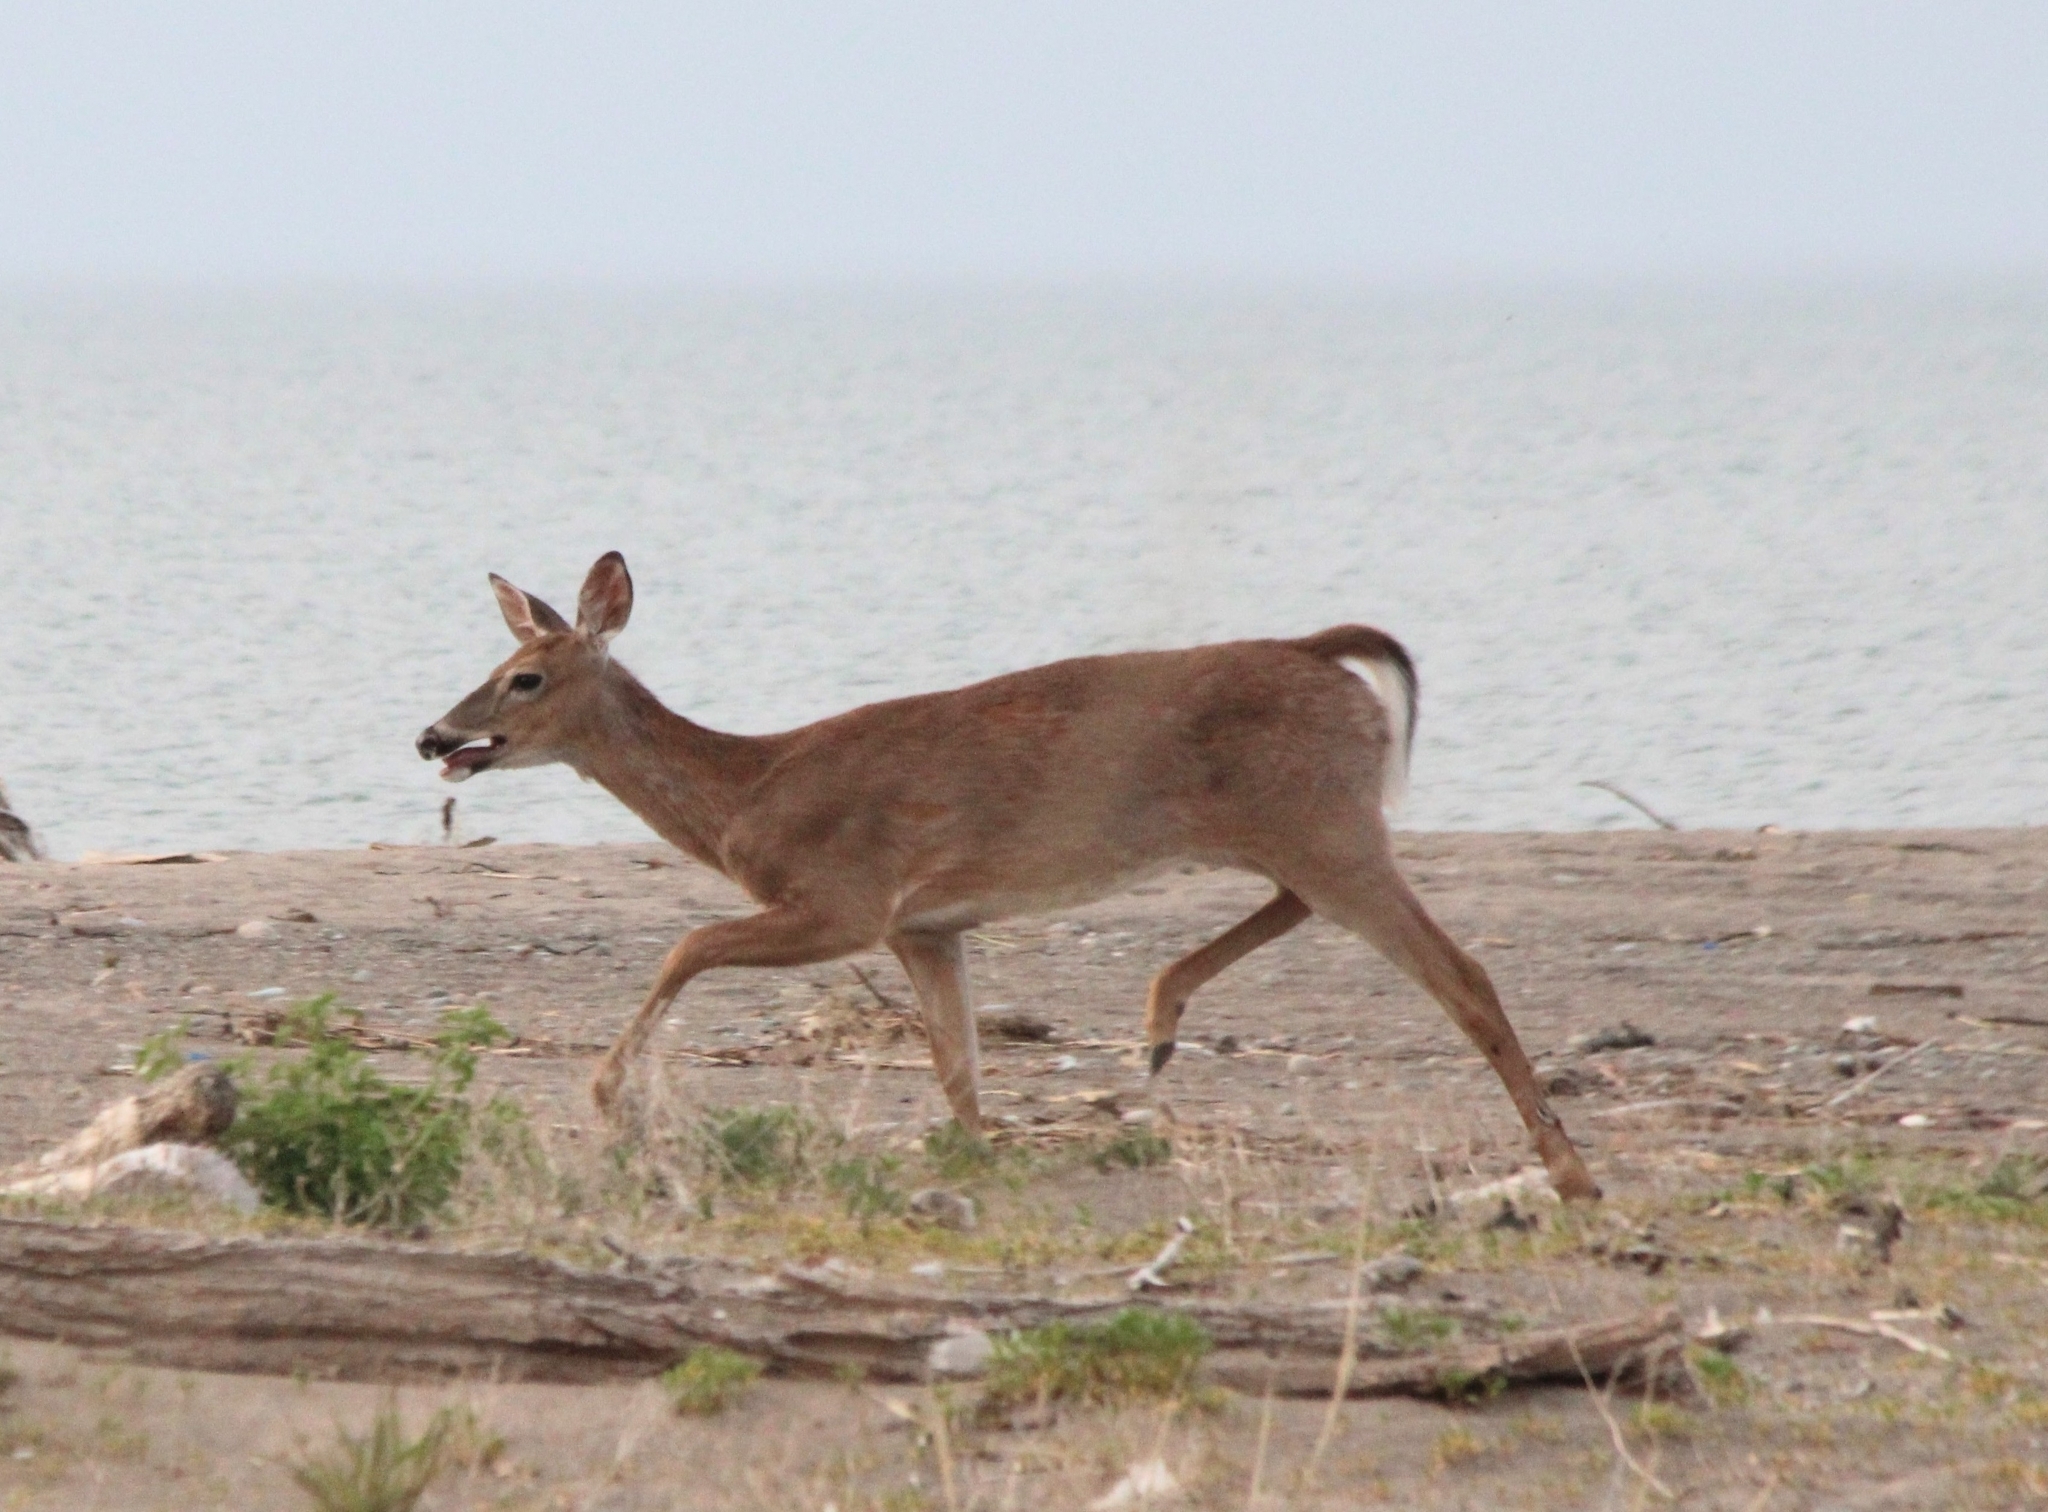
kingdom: Animalia
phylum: Chordata
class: Mammalia
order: Artiodactyla
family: Cervidae
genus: Odocoileus
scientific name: Odocoileus virginianus
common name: White-tailed deer
